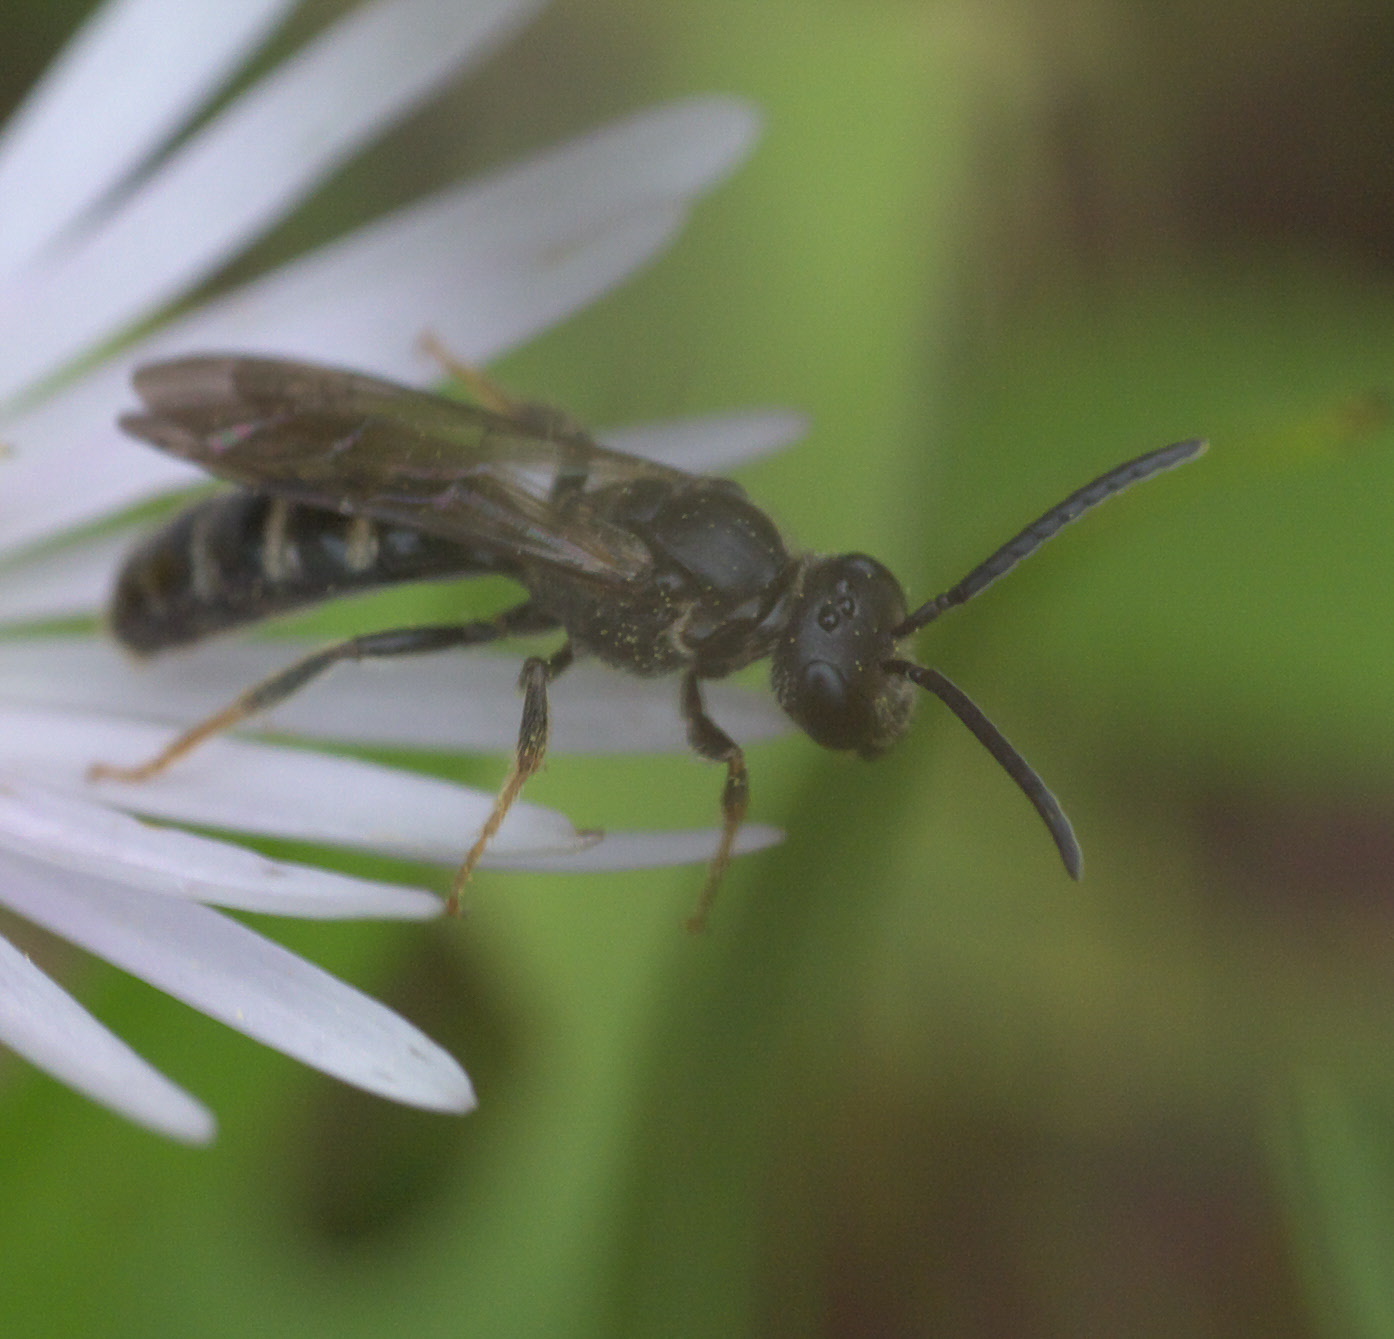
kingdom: Animalia
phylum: Arthropoda
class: Insecta
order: Hymenoptera
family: Halictidae
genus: Lasioglossum
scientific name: Lasioglossum fuscipenne
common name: Brown-winged sweat bee
